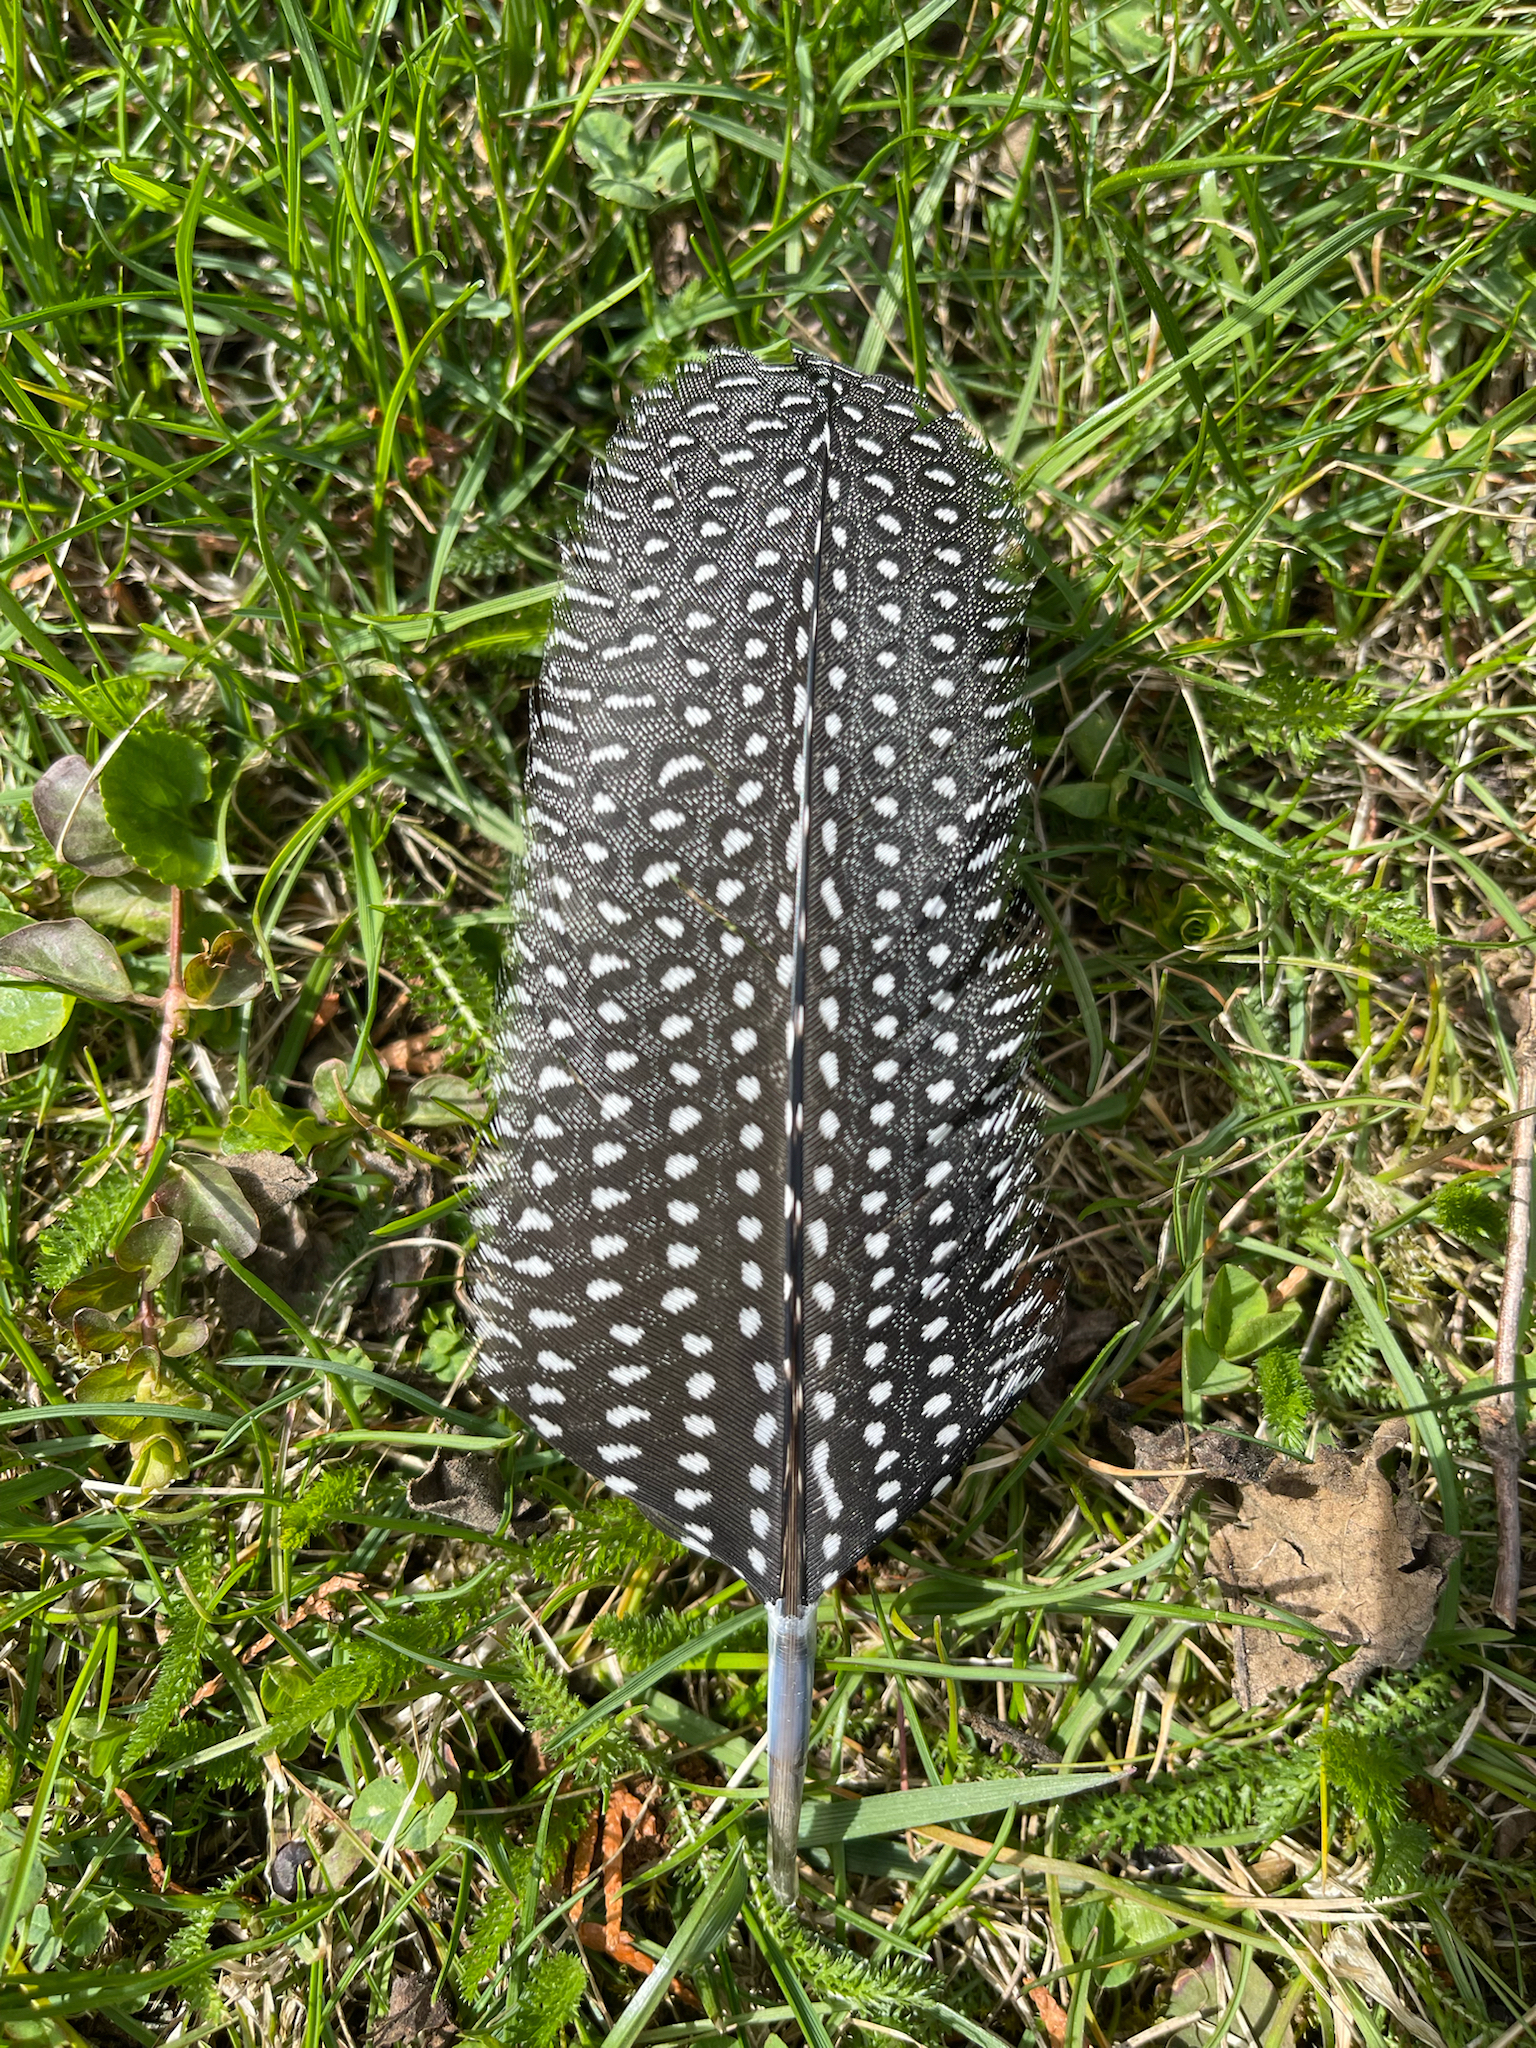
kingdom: Animalia
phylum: Chordata
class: Aves
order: Galliformes
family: Numididae
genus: Numida
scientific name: Numida meleagris
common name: Helmeted guineafowl
